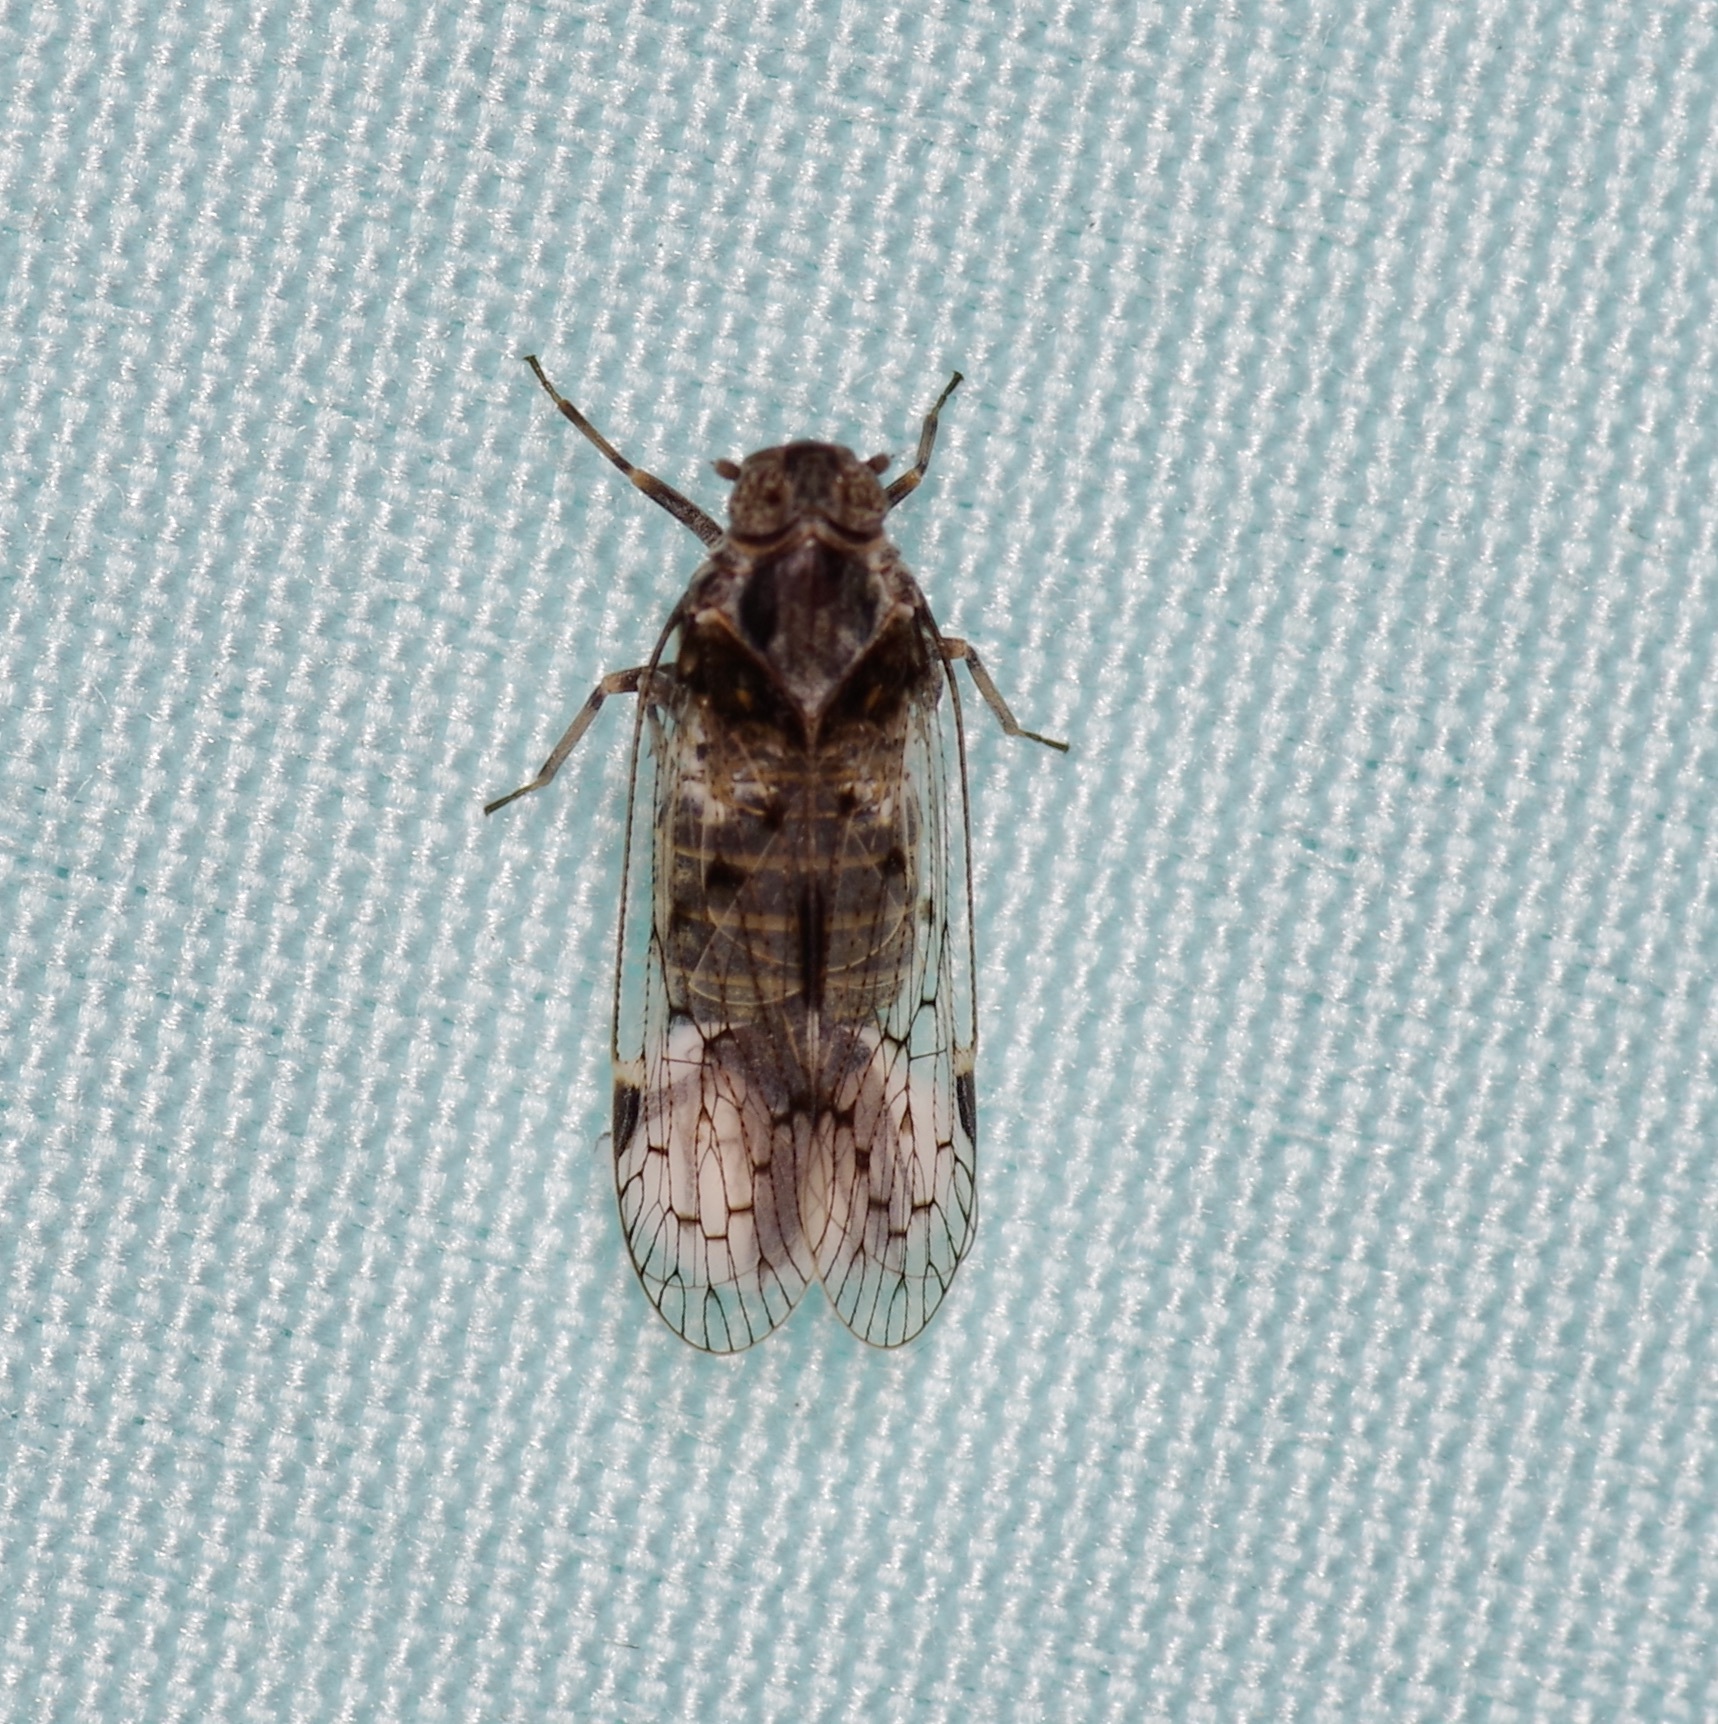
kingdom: Animalia
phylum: Arthropoda
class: Insecta
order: Hemiptera
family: Cixiidae
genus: Melanoliarus
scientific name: Melanoliarus aridus
